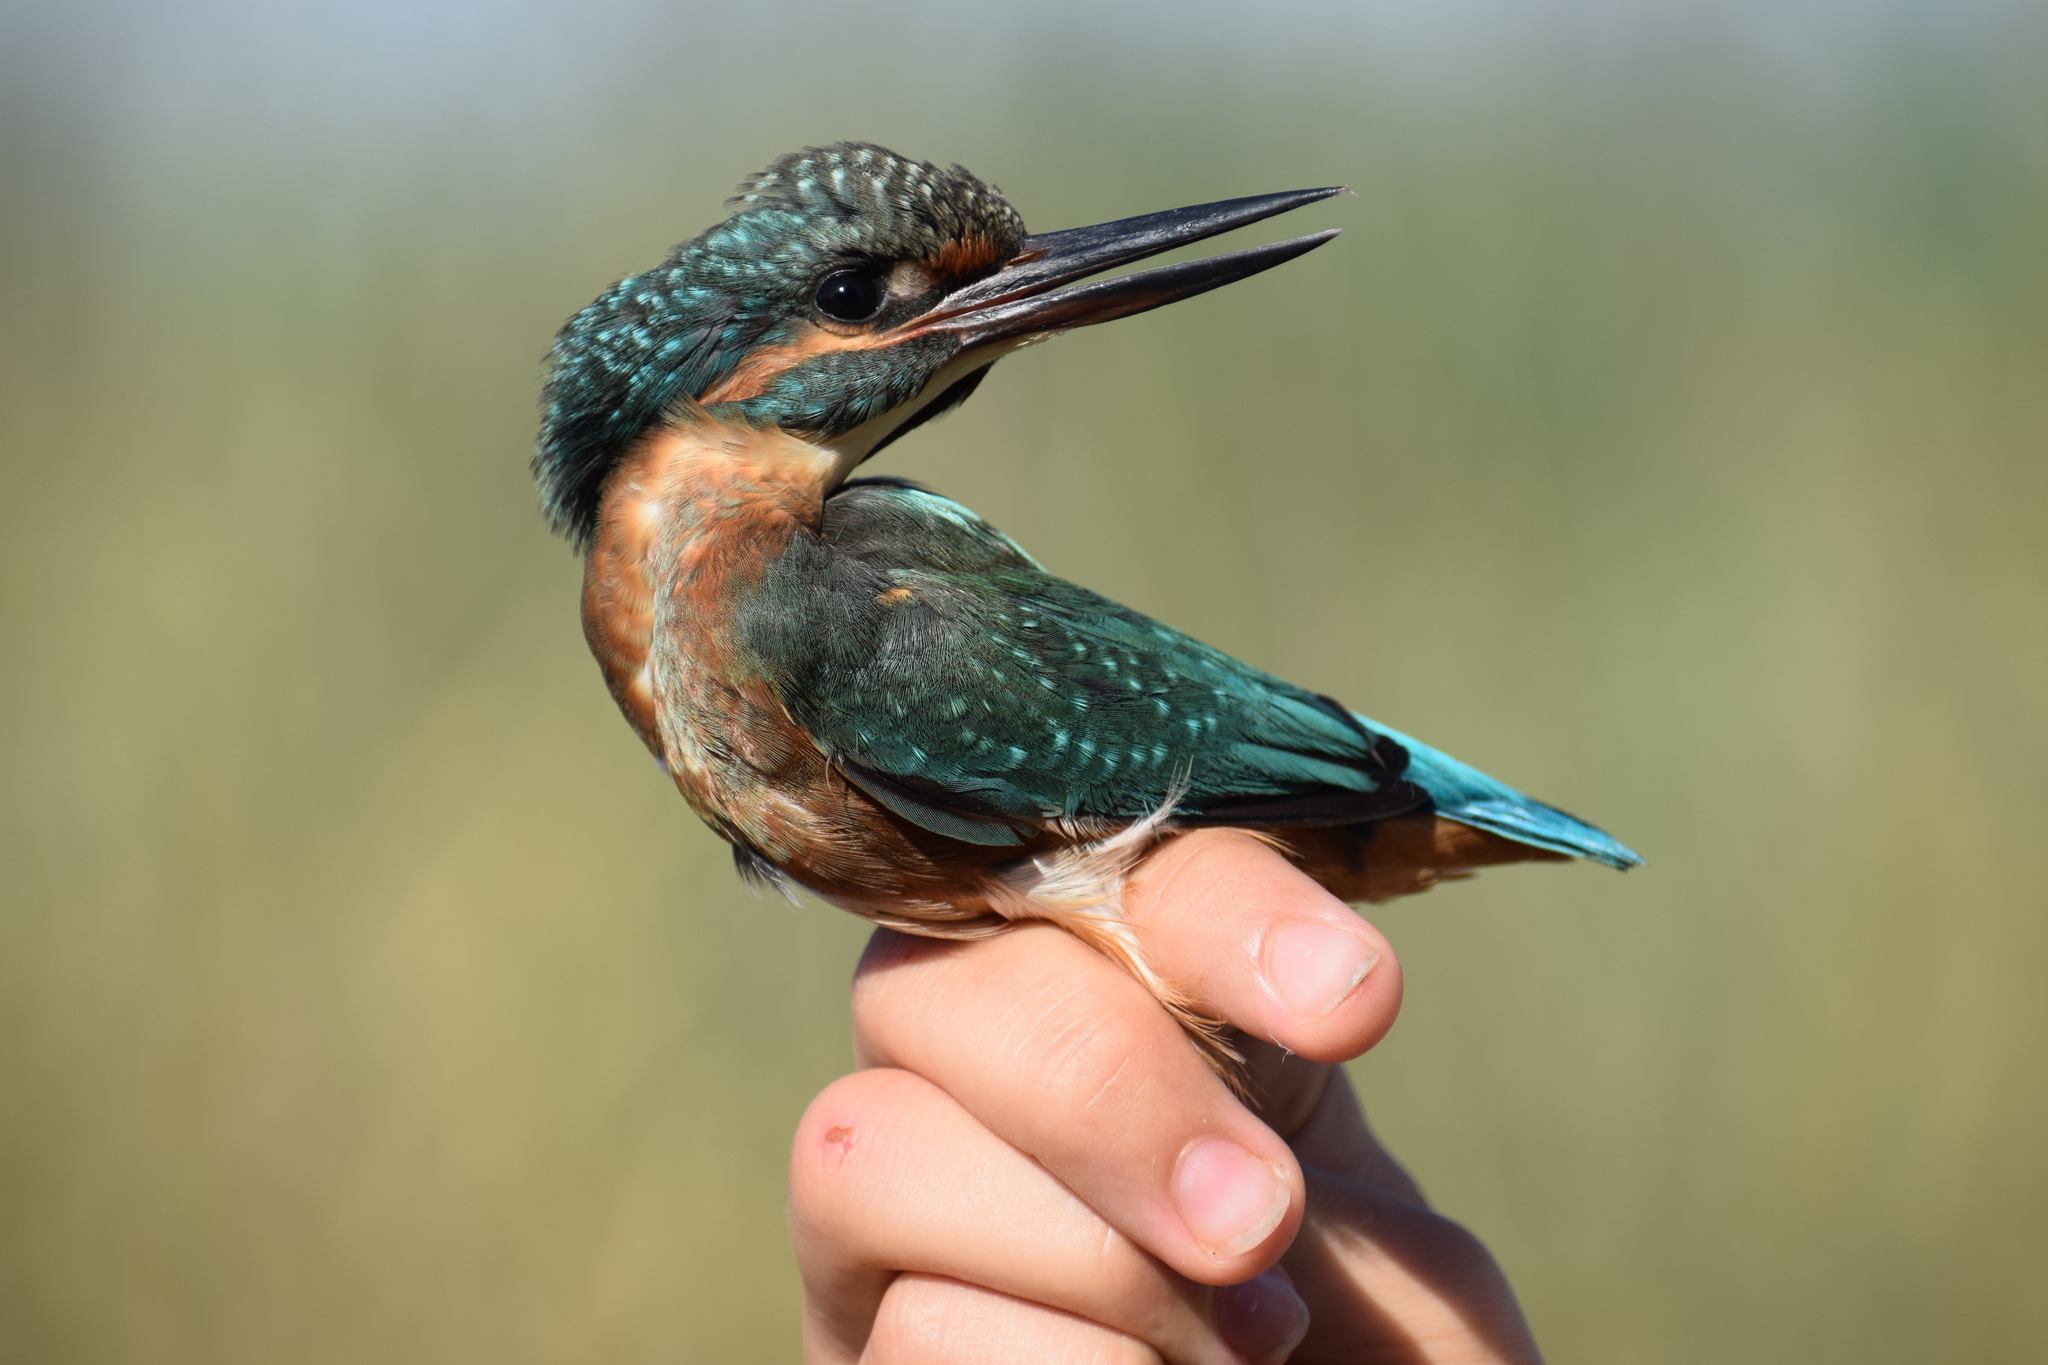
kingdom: Animalia
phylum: Chordata
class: Aves
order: Coraciiformes
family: Alcedinidae
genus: Alcedo
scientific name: Alcedo atthis
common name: Common kingfisher
